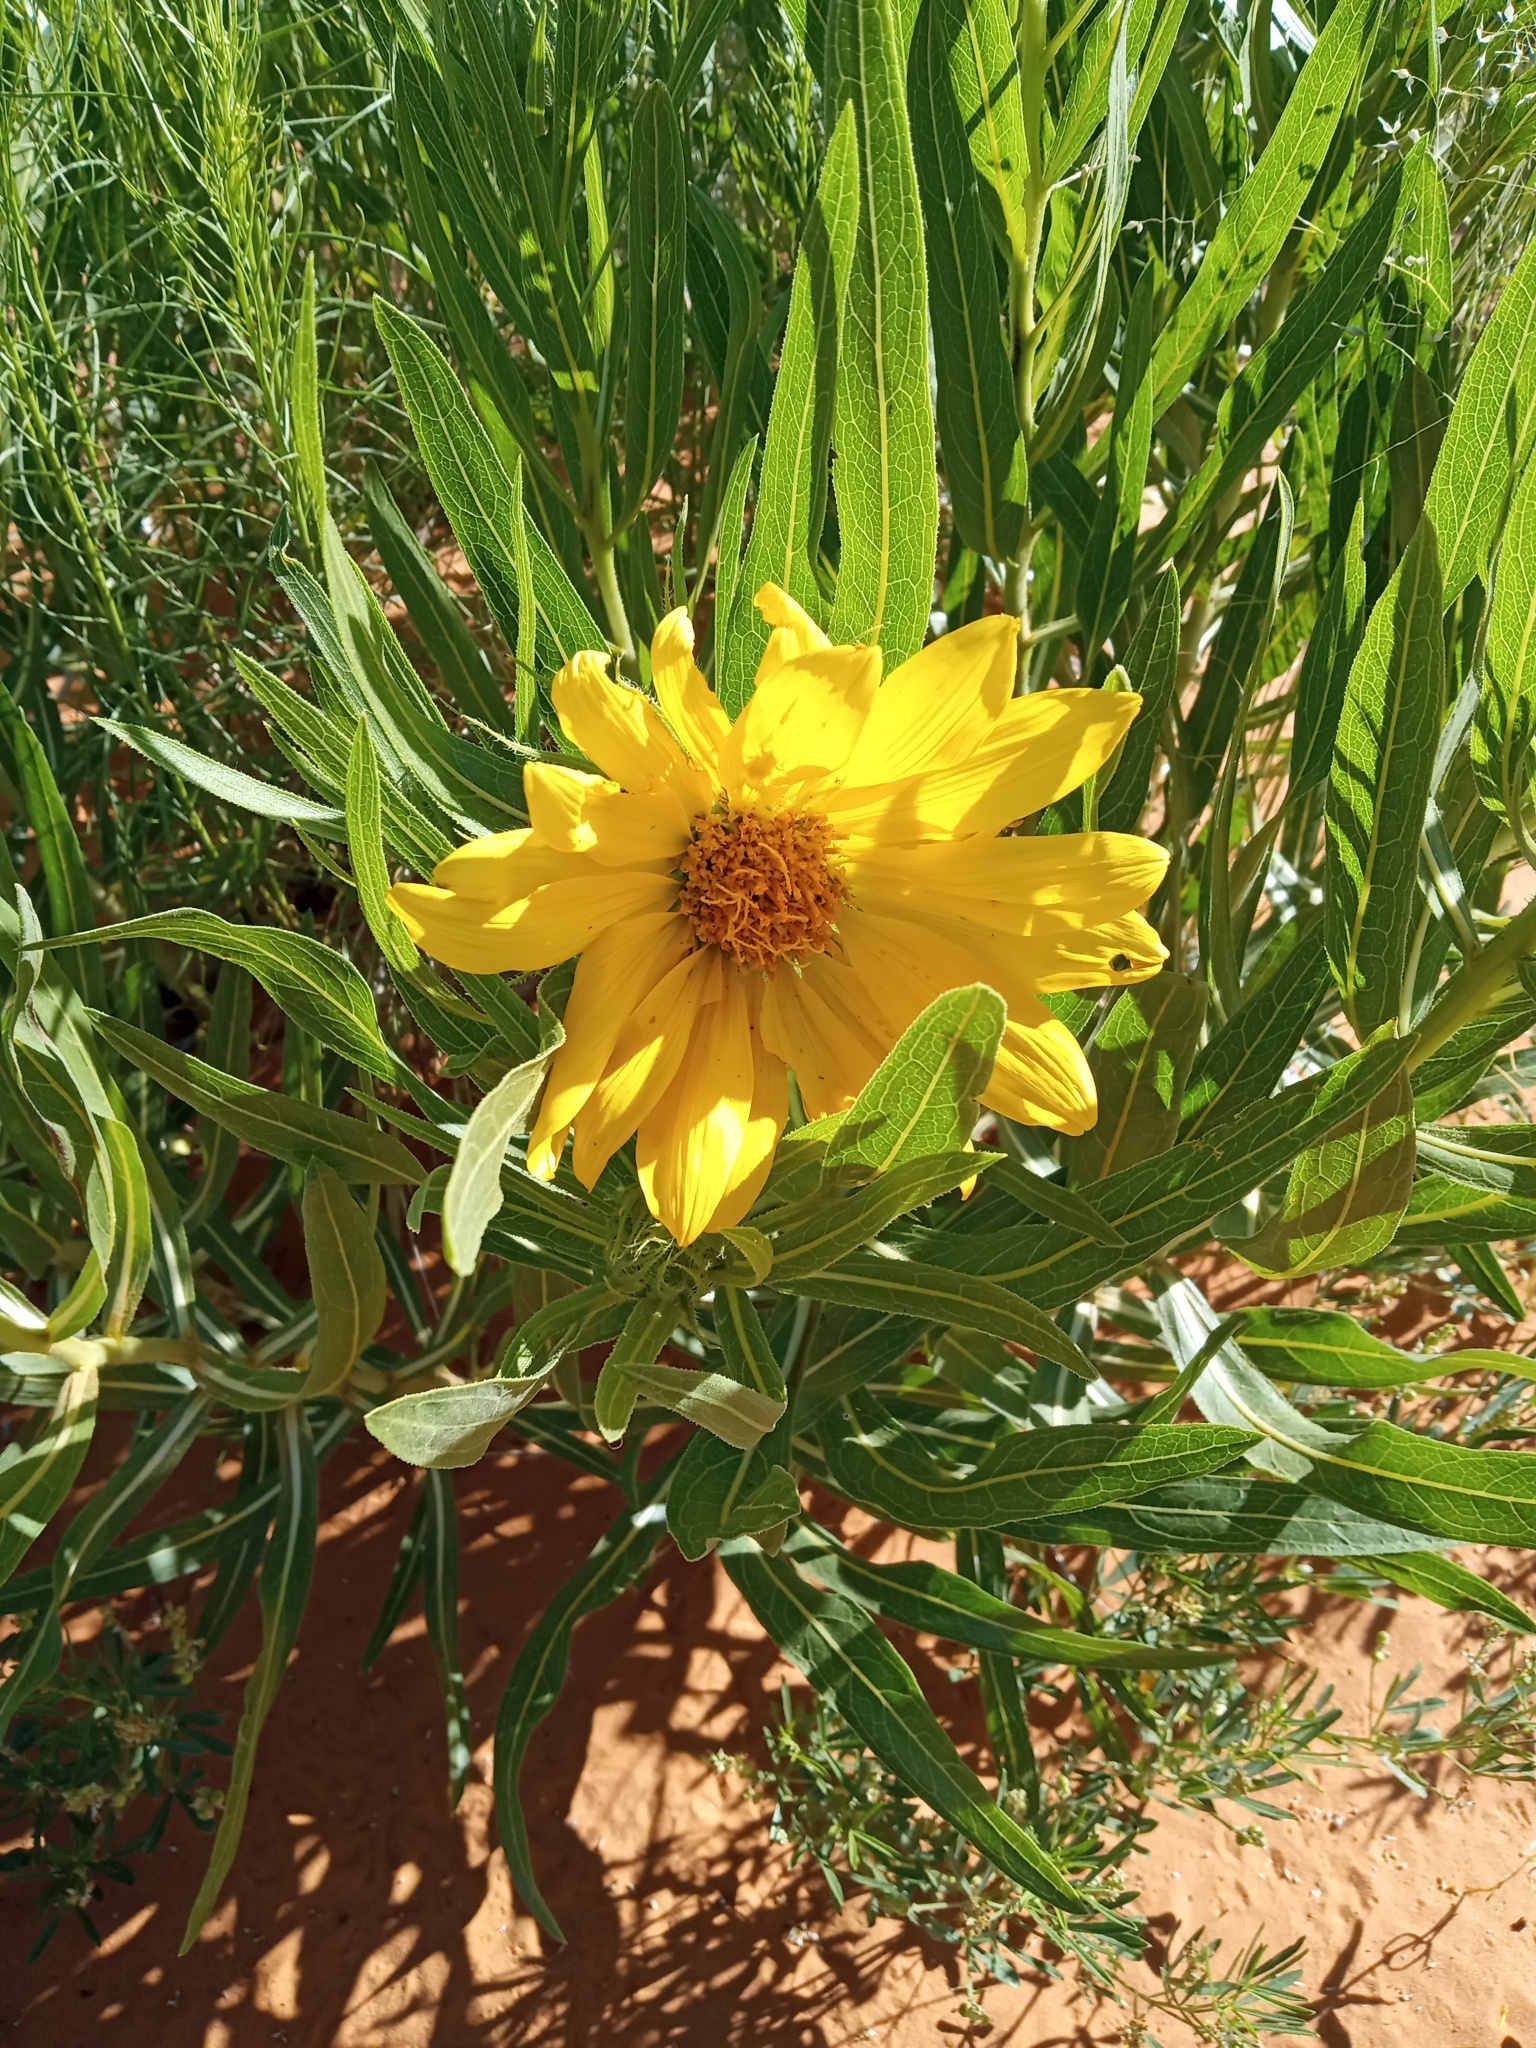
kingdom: Plantae
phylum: Tracheophyta
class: Magnoliopsida
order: Asterales
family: Asteraceae
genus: Scabrethia
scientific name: Scabrethia scabra
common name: Rough mules's-ears
